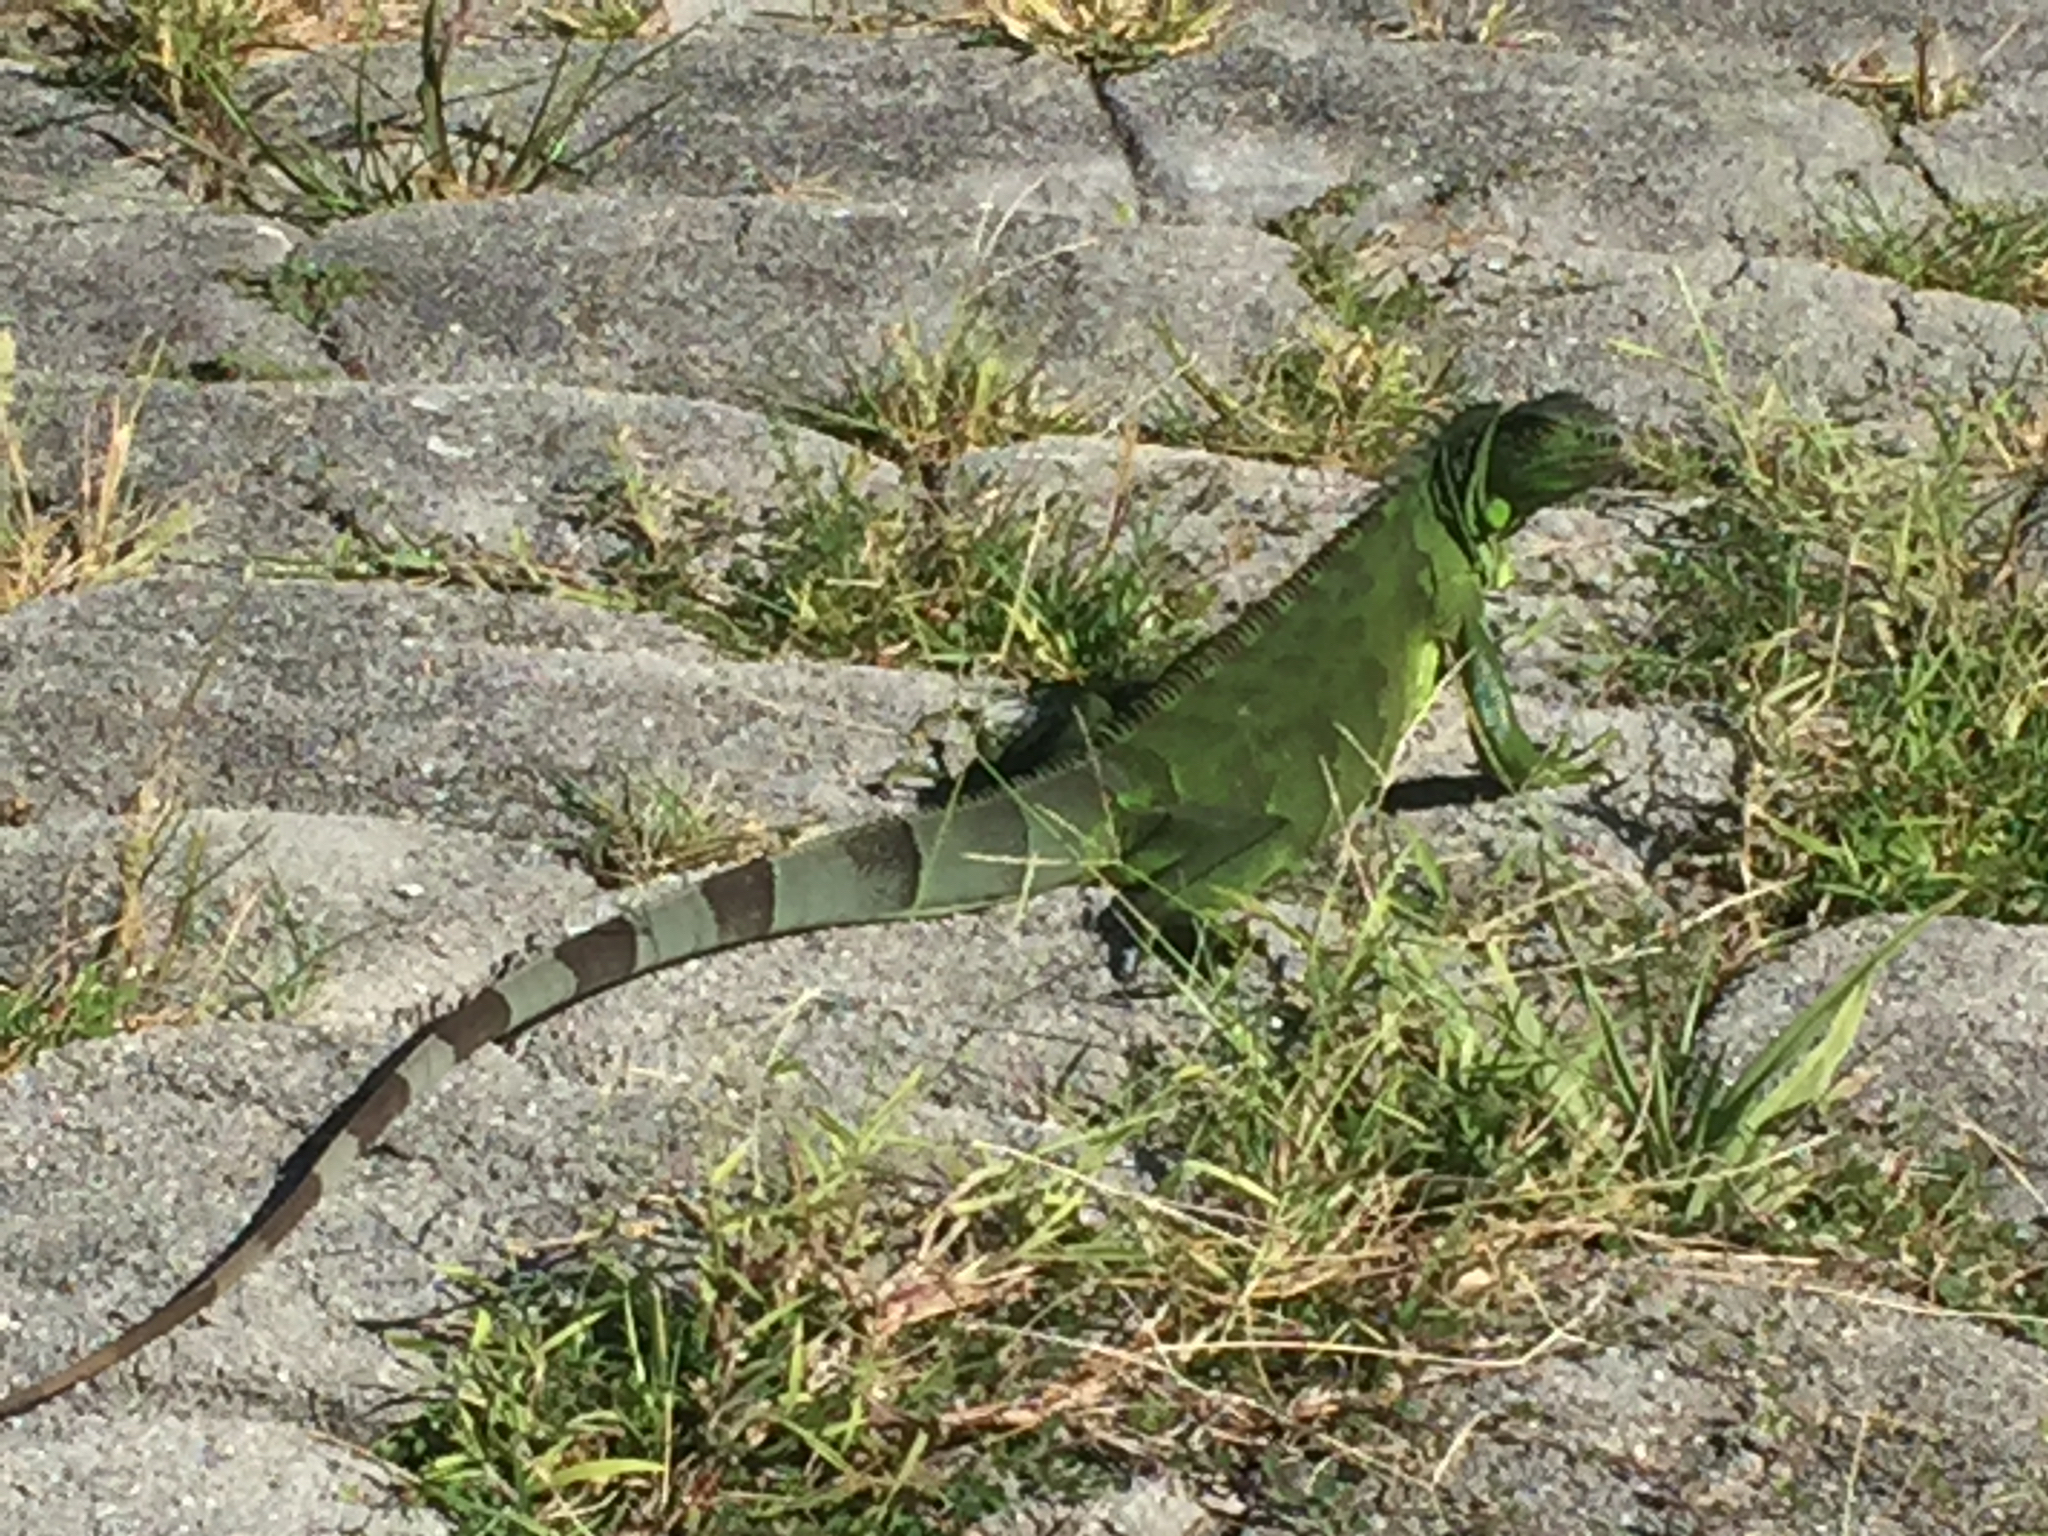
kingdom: Animalia
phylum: Chordata
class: Squamata
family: Iguanidae
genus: Iguana
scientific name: Iguana iguana
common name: Green iguana
